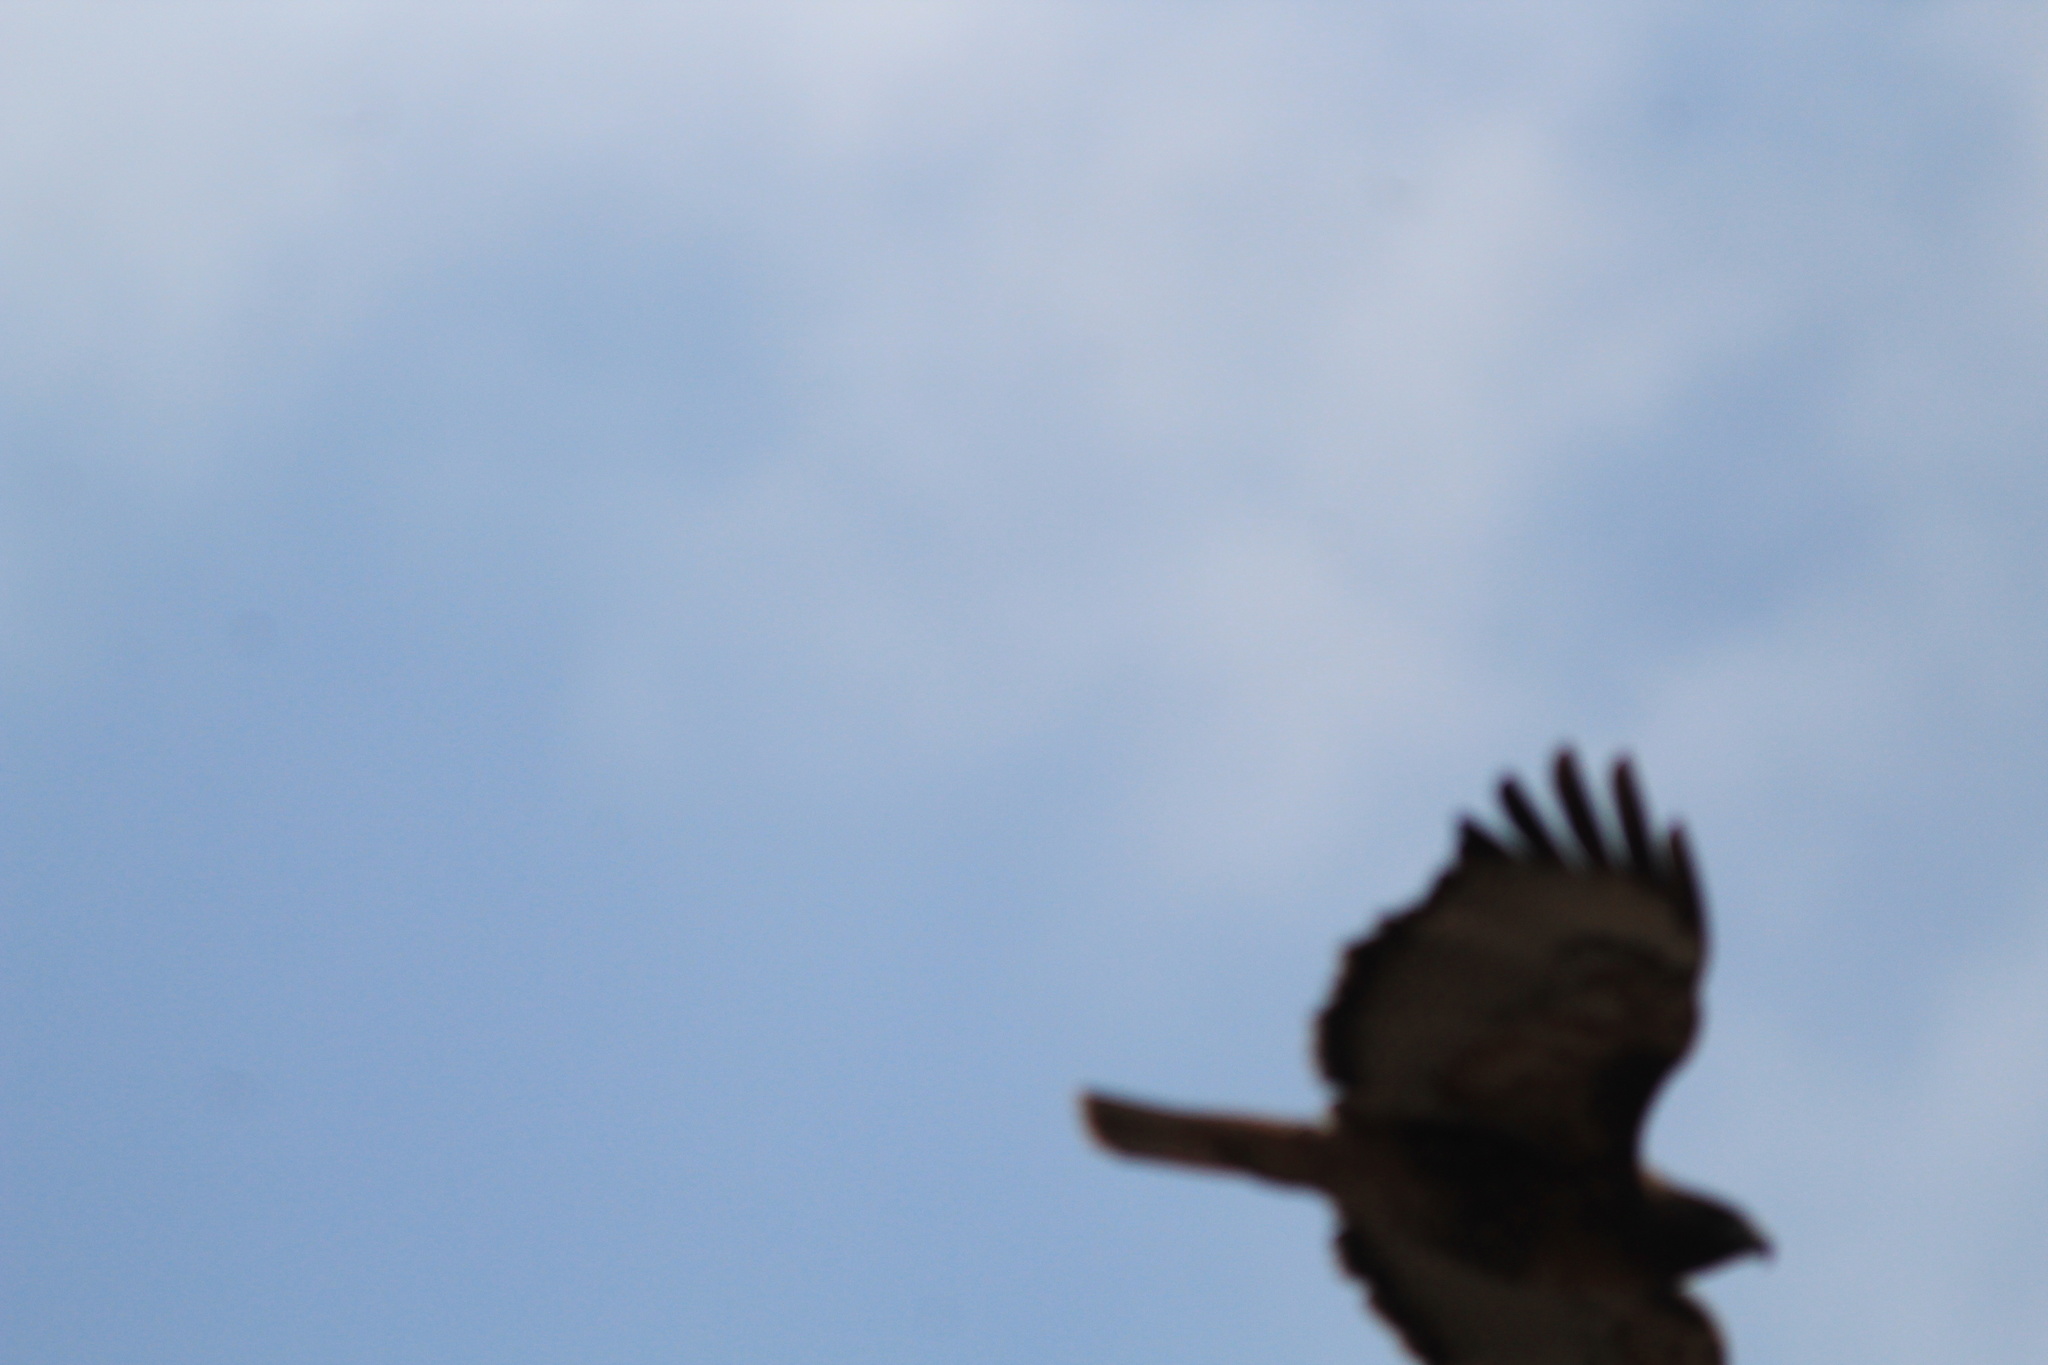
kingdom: Animalia
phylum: Chordata
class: Aves
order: Accipitriformes
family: Accipitridae
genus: Buteo
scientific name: Buteo jamaicensis
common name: Red-tailed hawk
